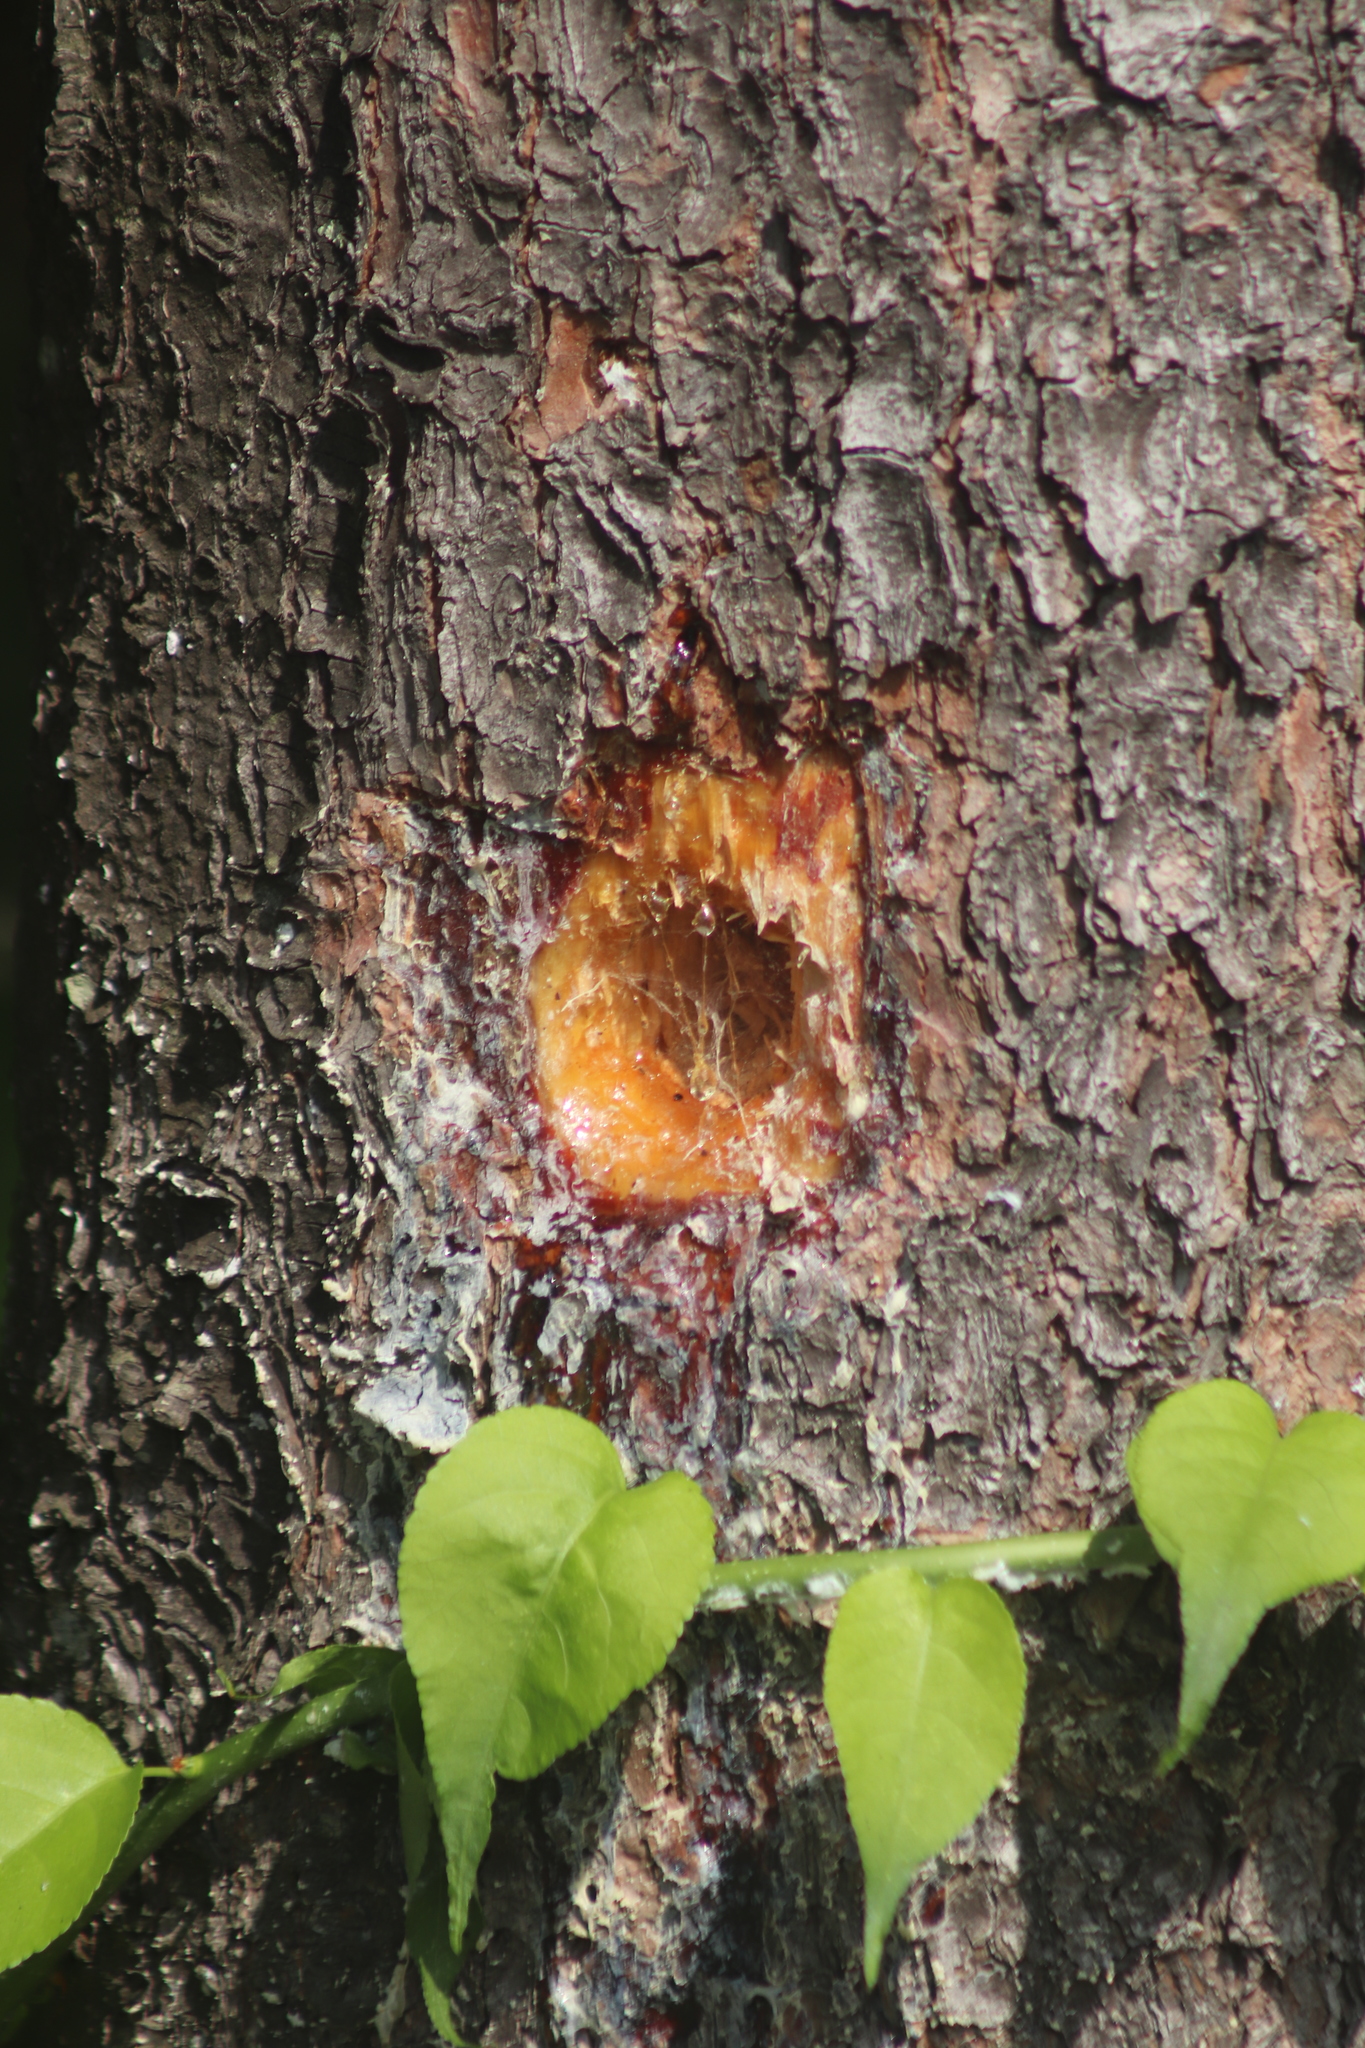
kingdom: Animalia
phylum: Chordata
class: Aves
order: Piciformes
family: Picidae
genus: Dryocopus
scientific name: Dryocopus pileatus
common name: Pileated woodpecker
